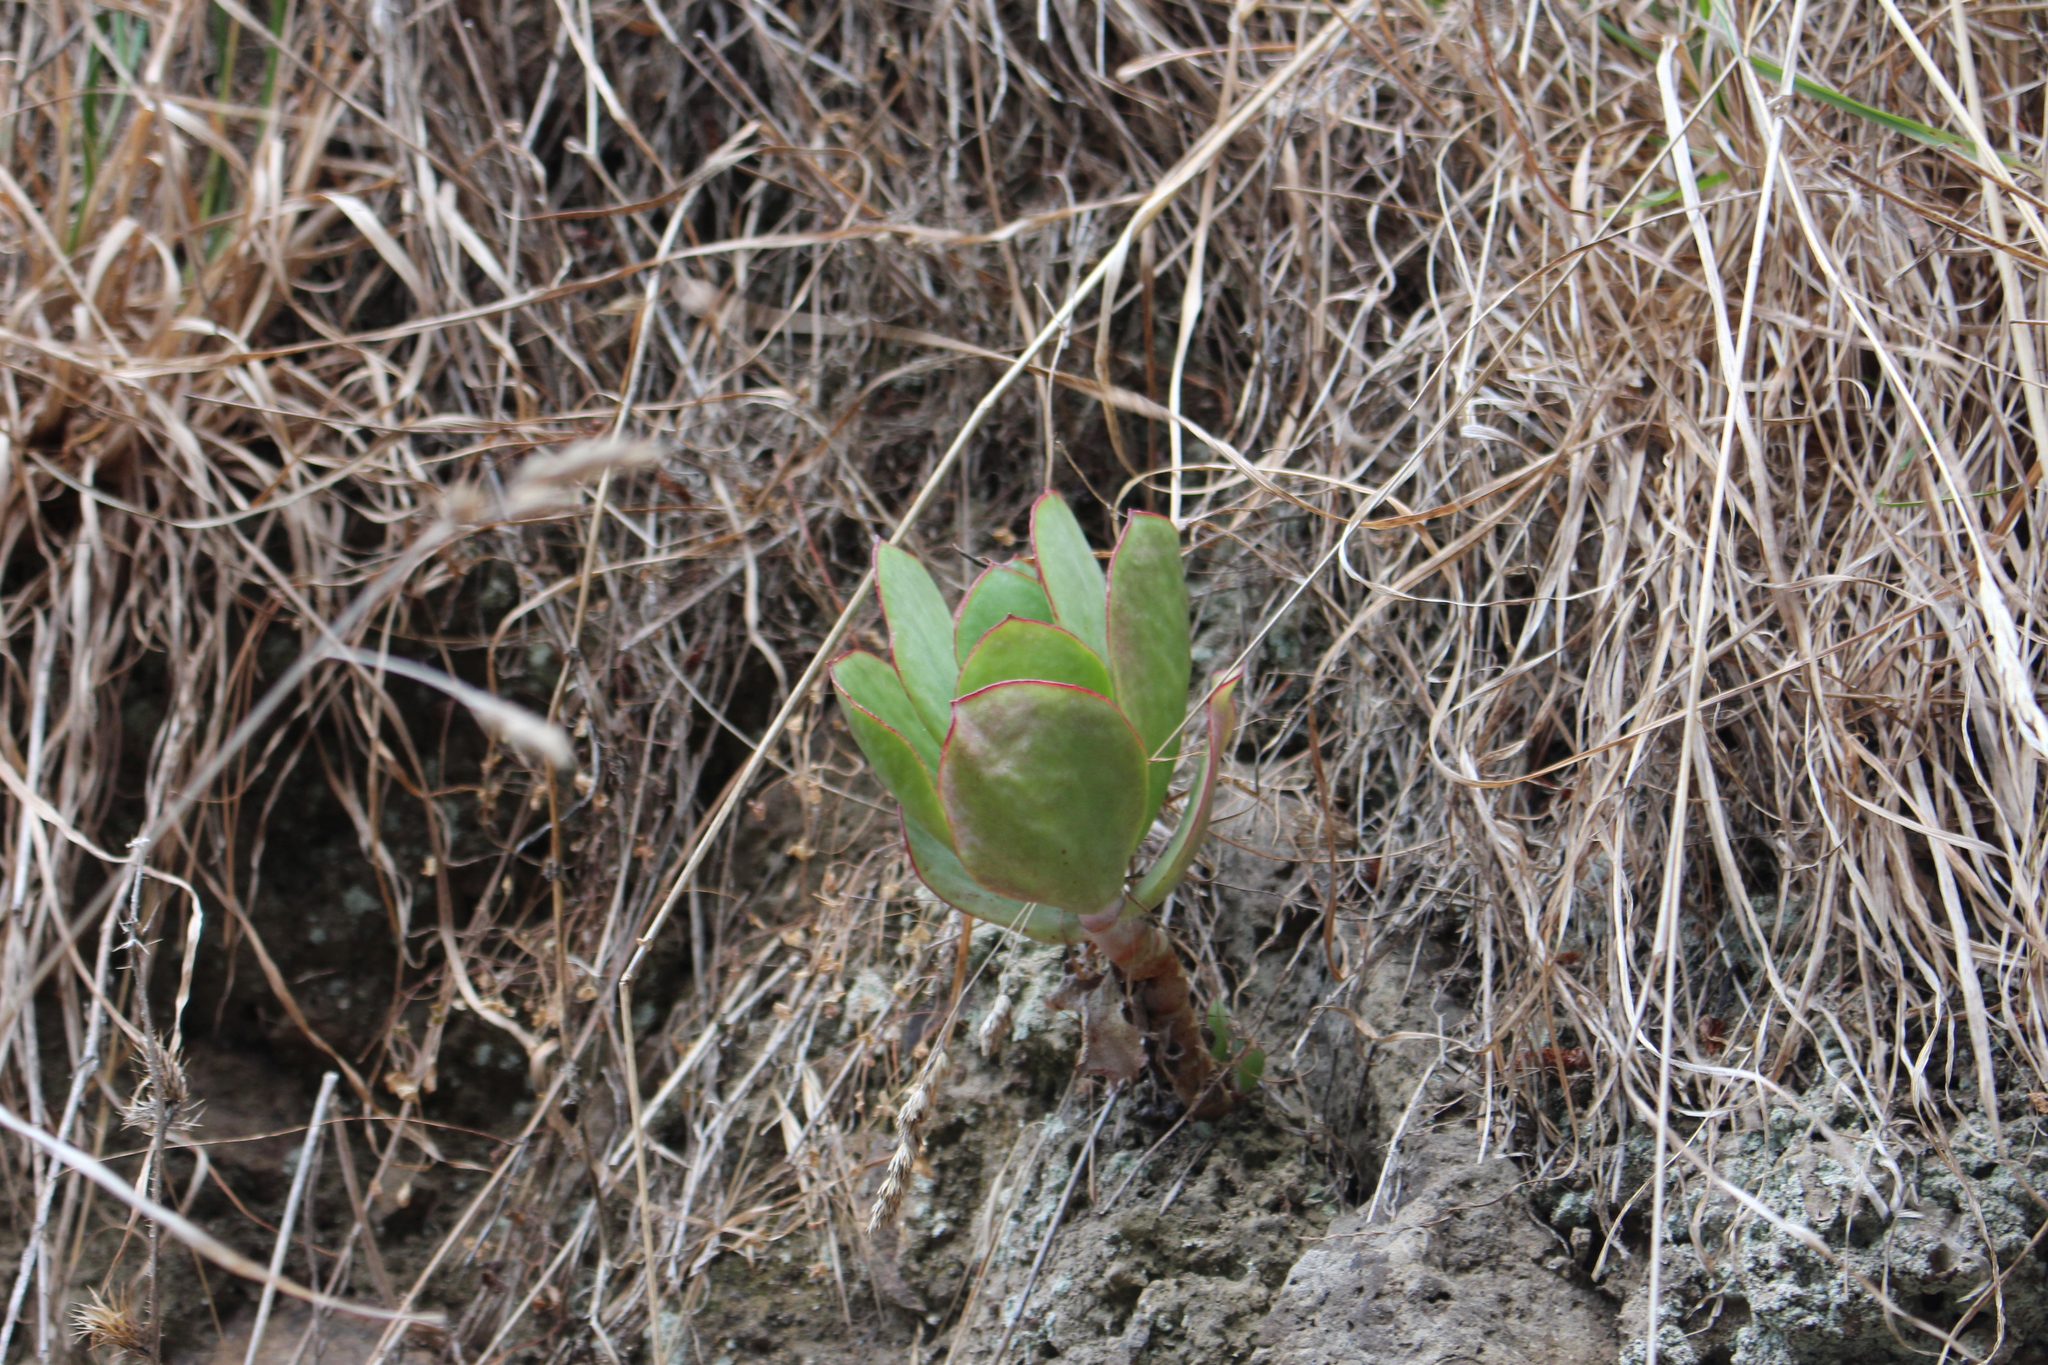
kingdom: Plantae
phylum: Tracheophyta
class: Magnoliopsida
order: Saxifragales
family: Crassulaceae
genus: Cotyledon
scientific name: Cotyledon orbiculata
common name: Pig's ear
